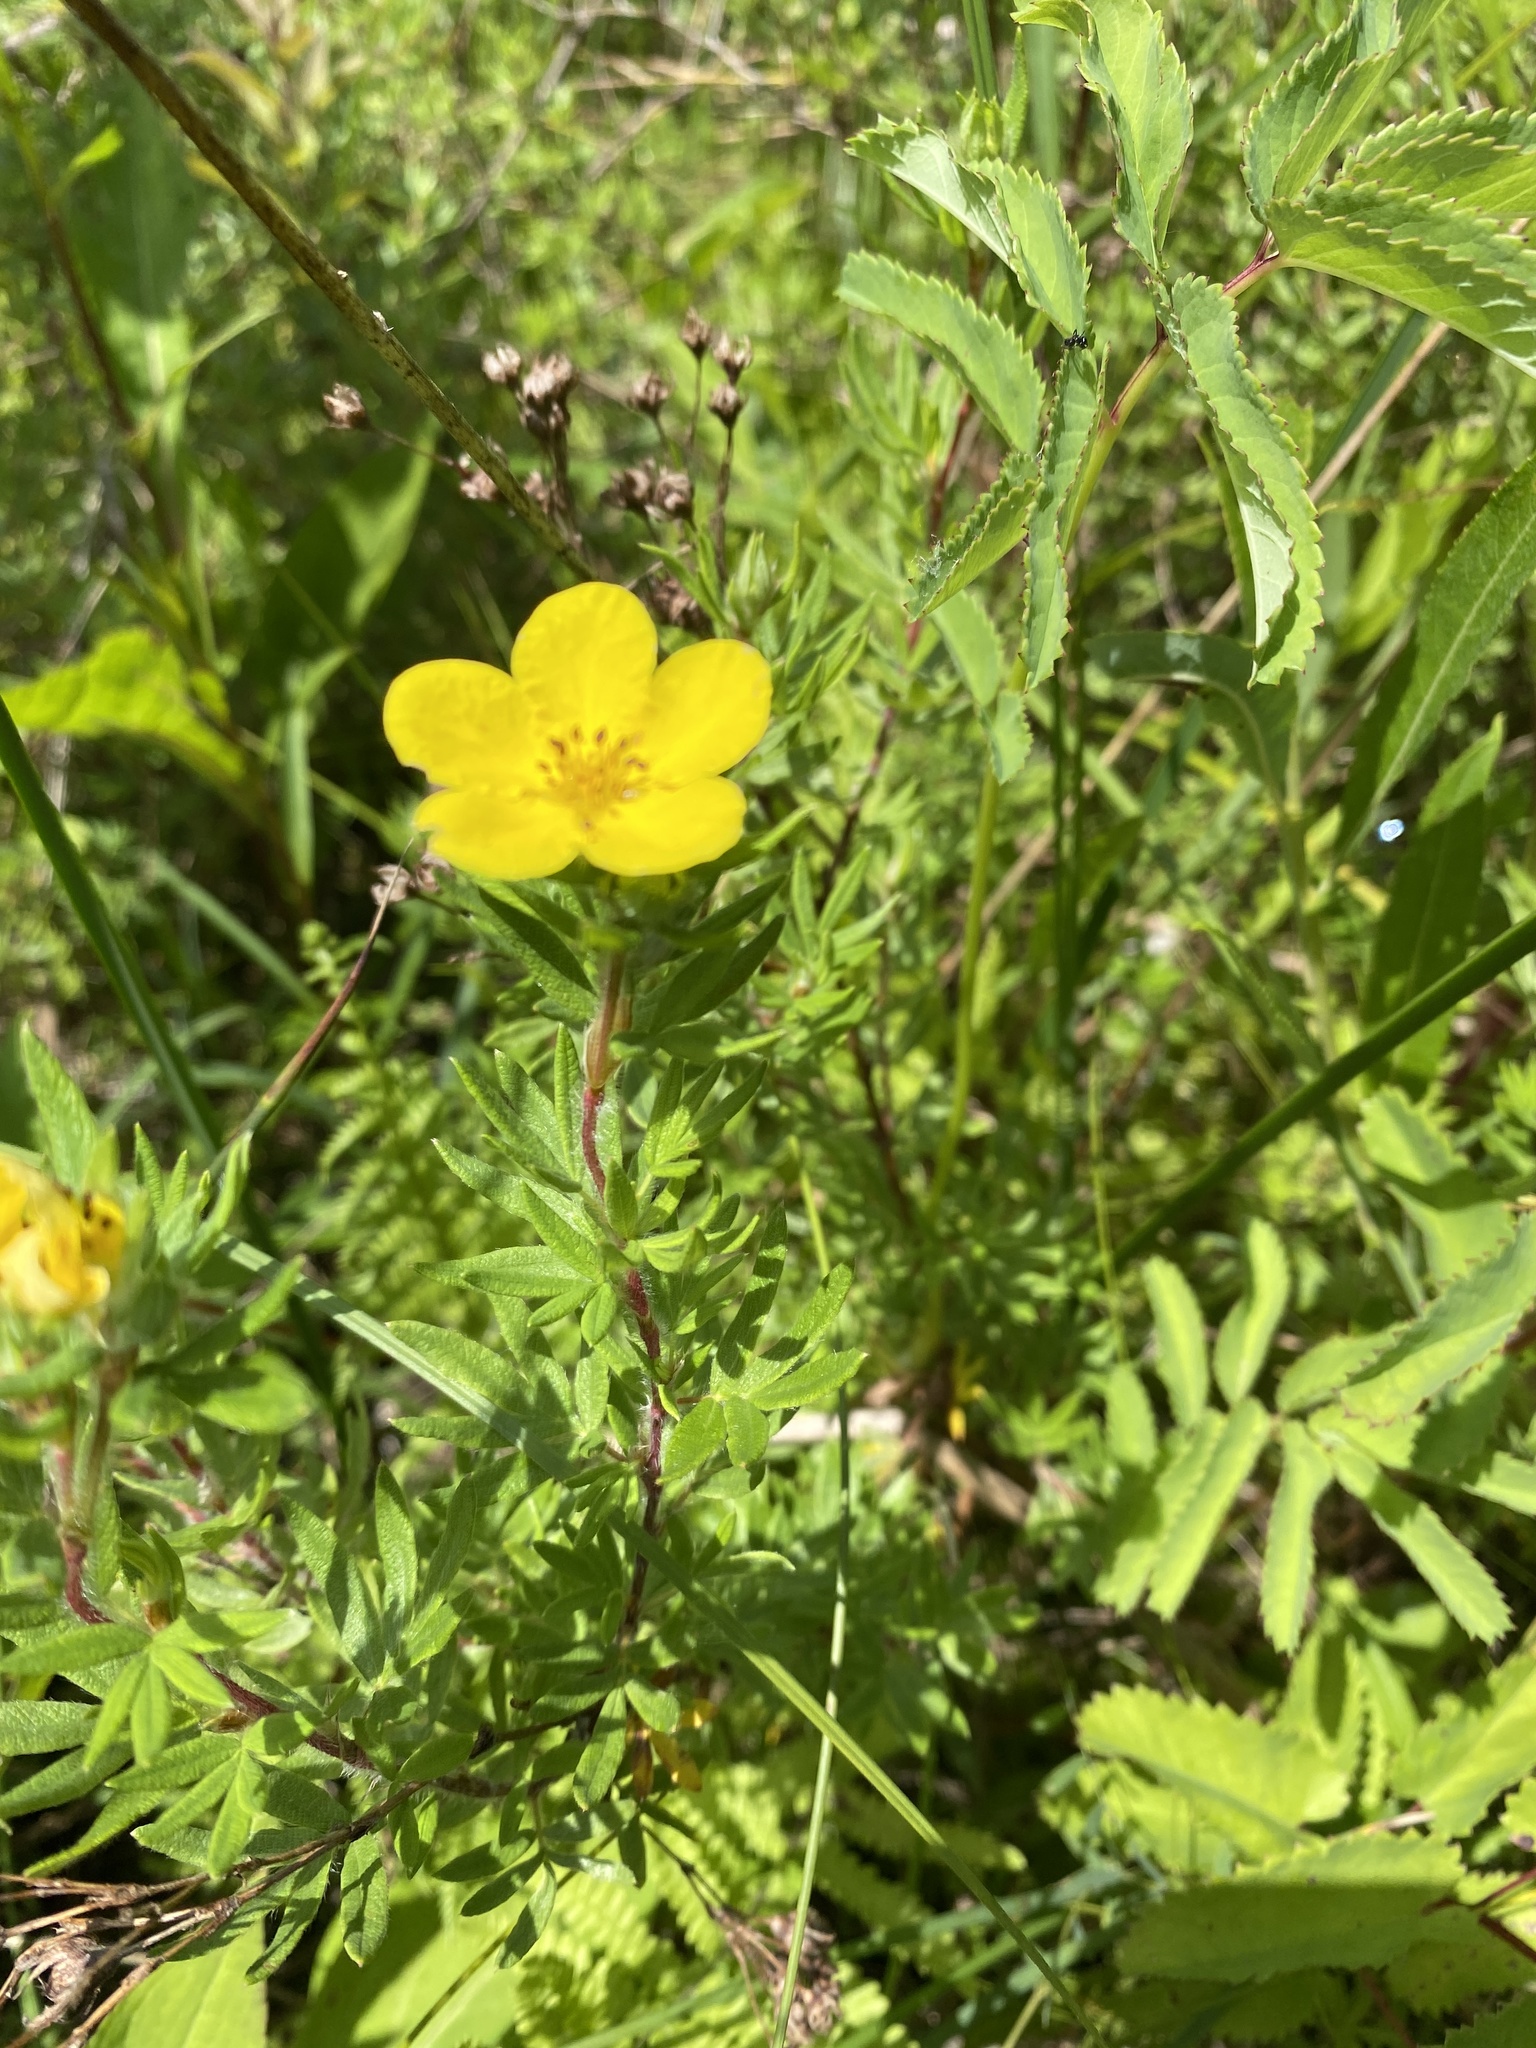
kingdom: Plantae
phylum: Tracheophyta
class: Magnoliopsida
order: Rosales
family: Rosaceae
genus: Dasiphora
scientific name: Dasiphora fruticosa
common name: Shrubby cinquefoil
